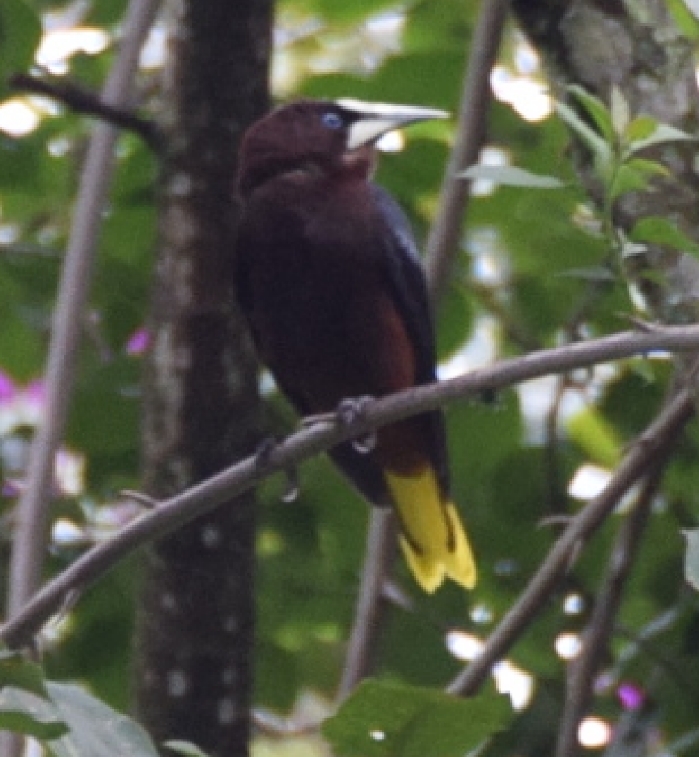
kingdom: Animalia
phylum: Chordata
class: Aves
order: Passeriformes
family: Icteridae
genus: Psarocolius
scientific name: Psarocolius wagleri
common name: Chestnut-headed oropendola
